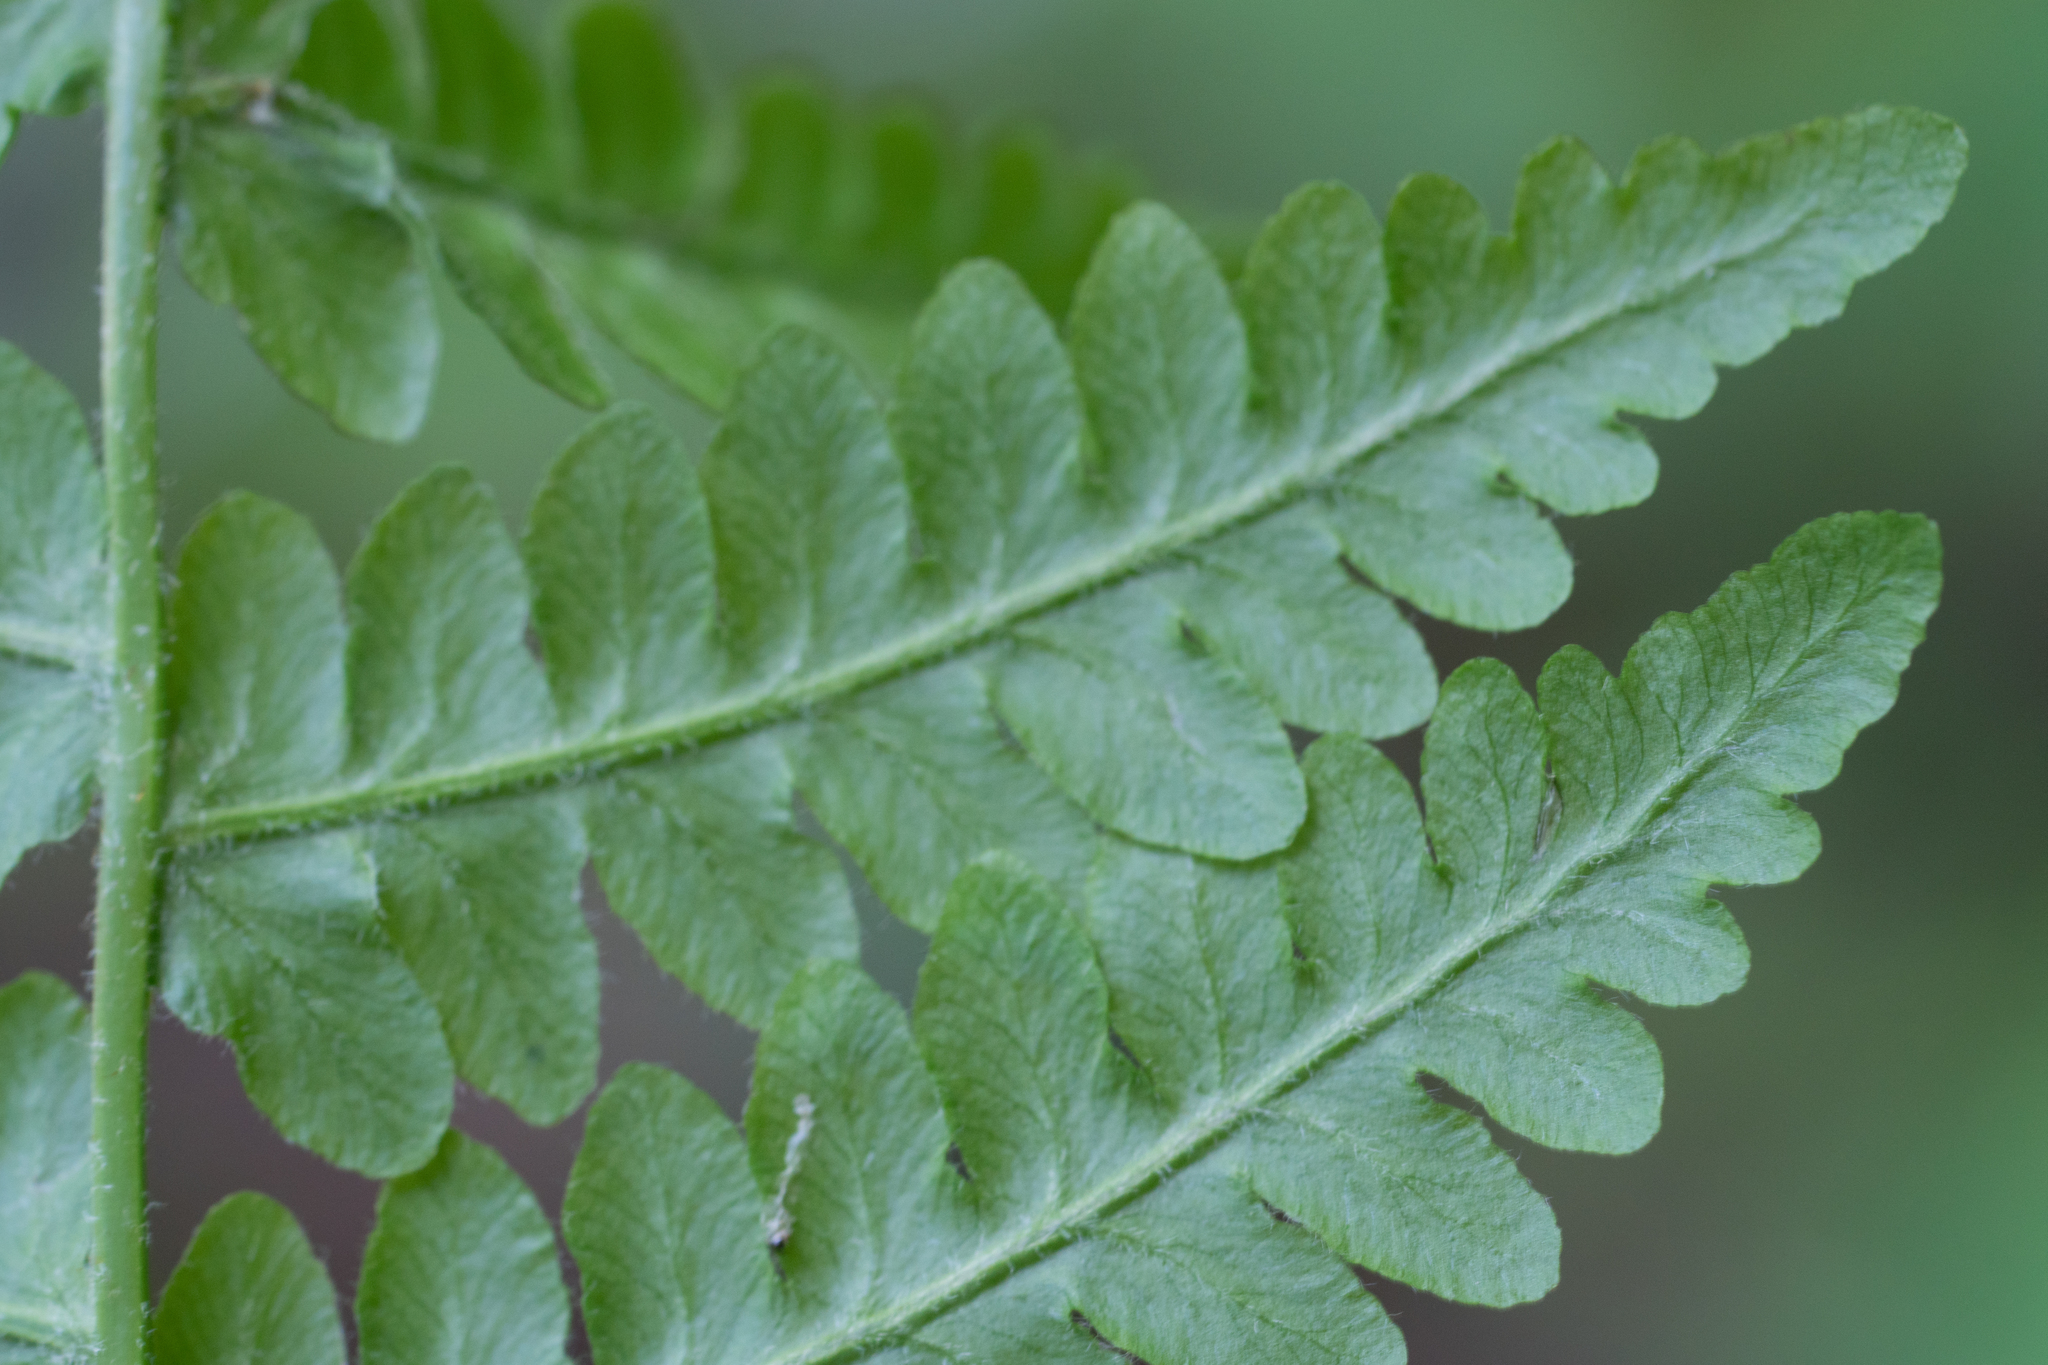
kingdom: Plantae
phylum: Tracheophyta
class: Polypodiopsida
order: Polypodiales
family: Dennstaedtiaceae
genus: Pteridium
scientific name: Pteridium aquilinum
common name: Bracken
